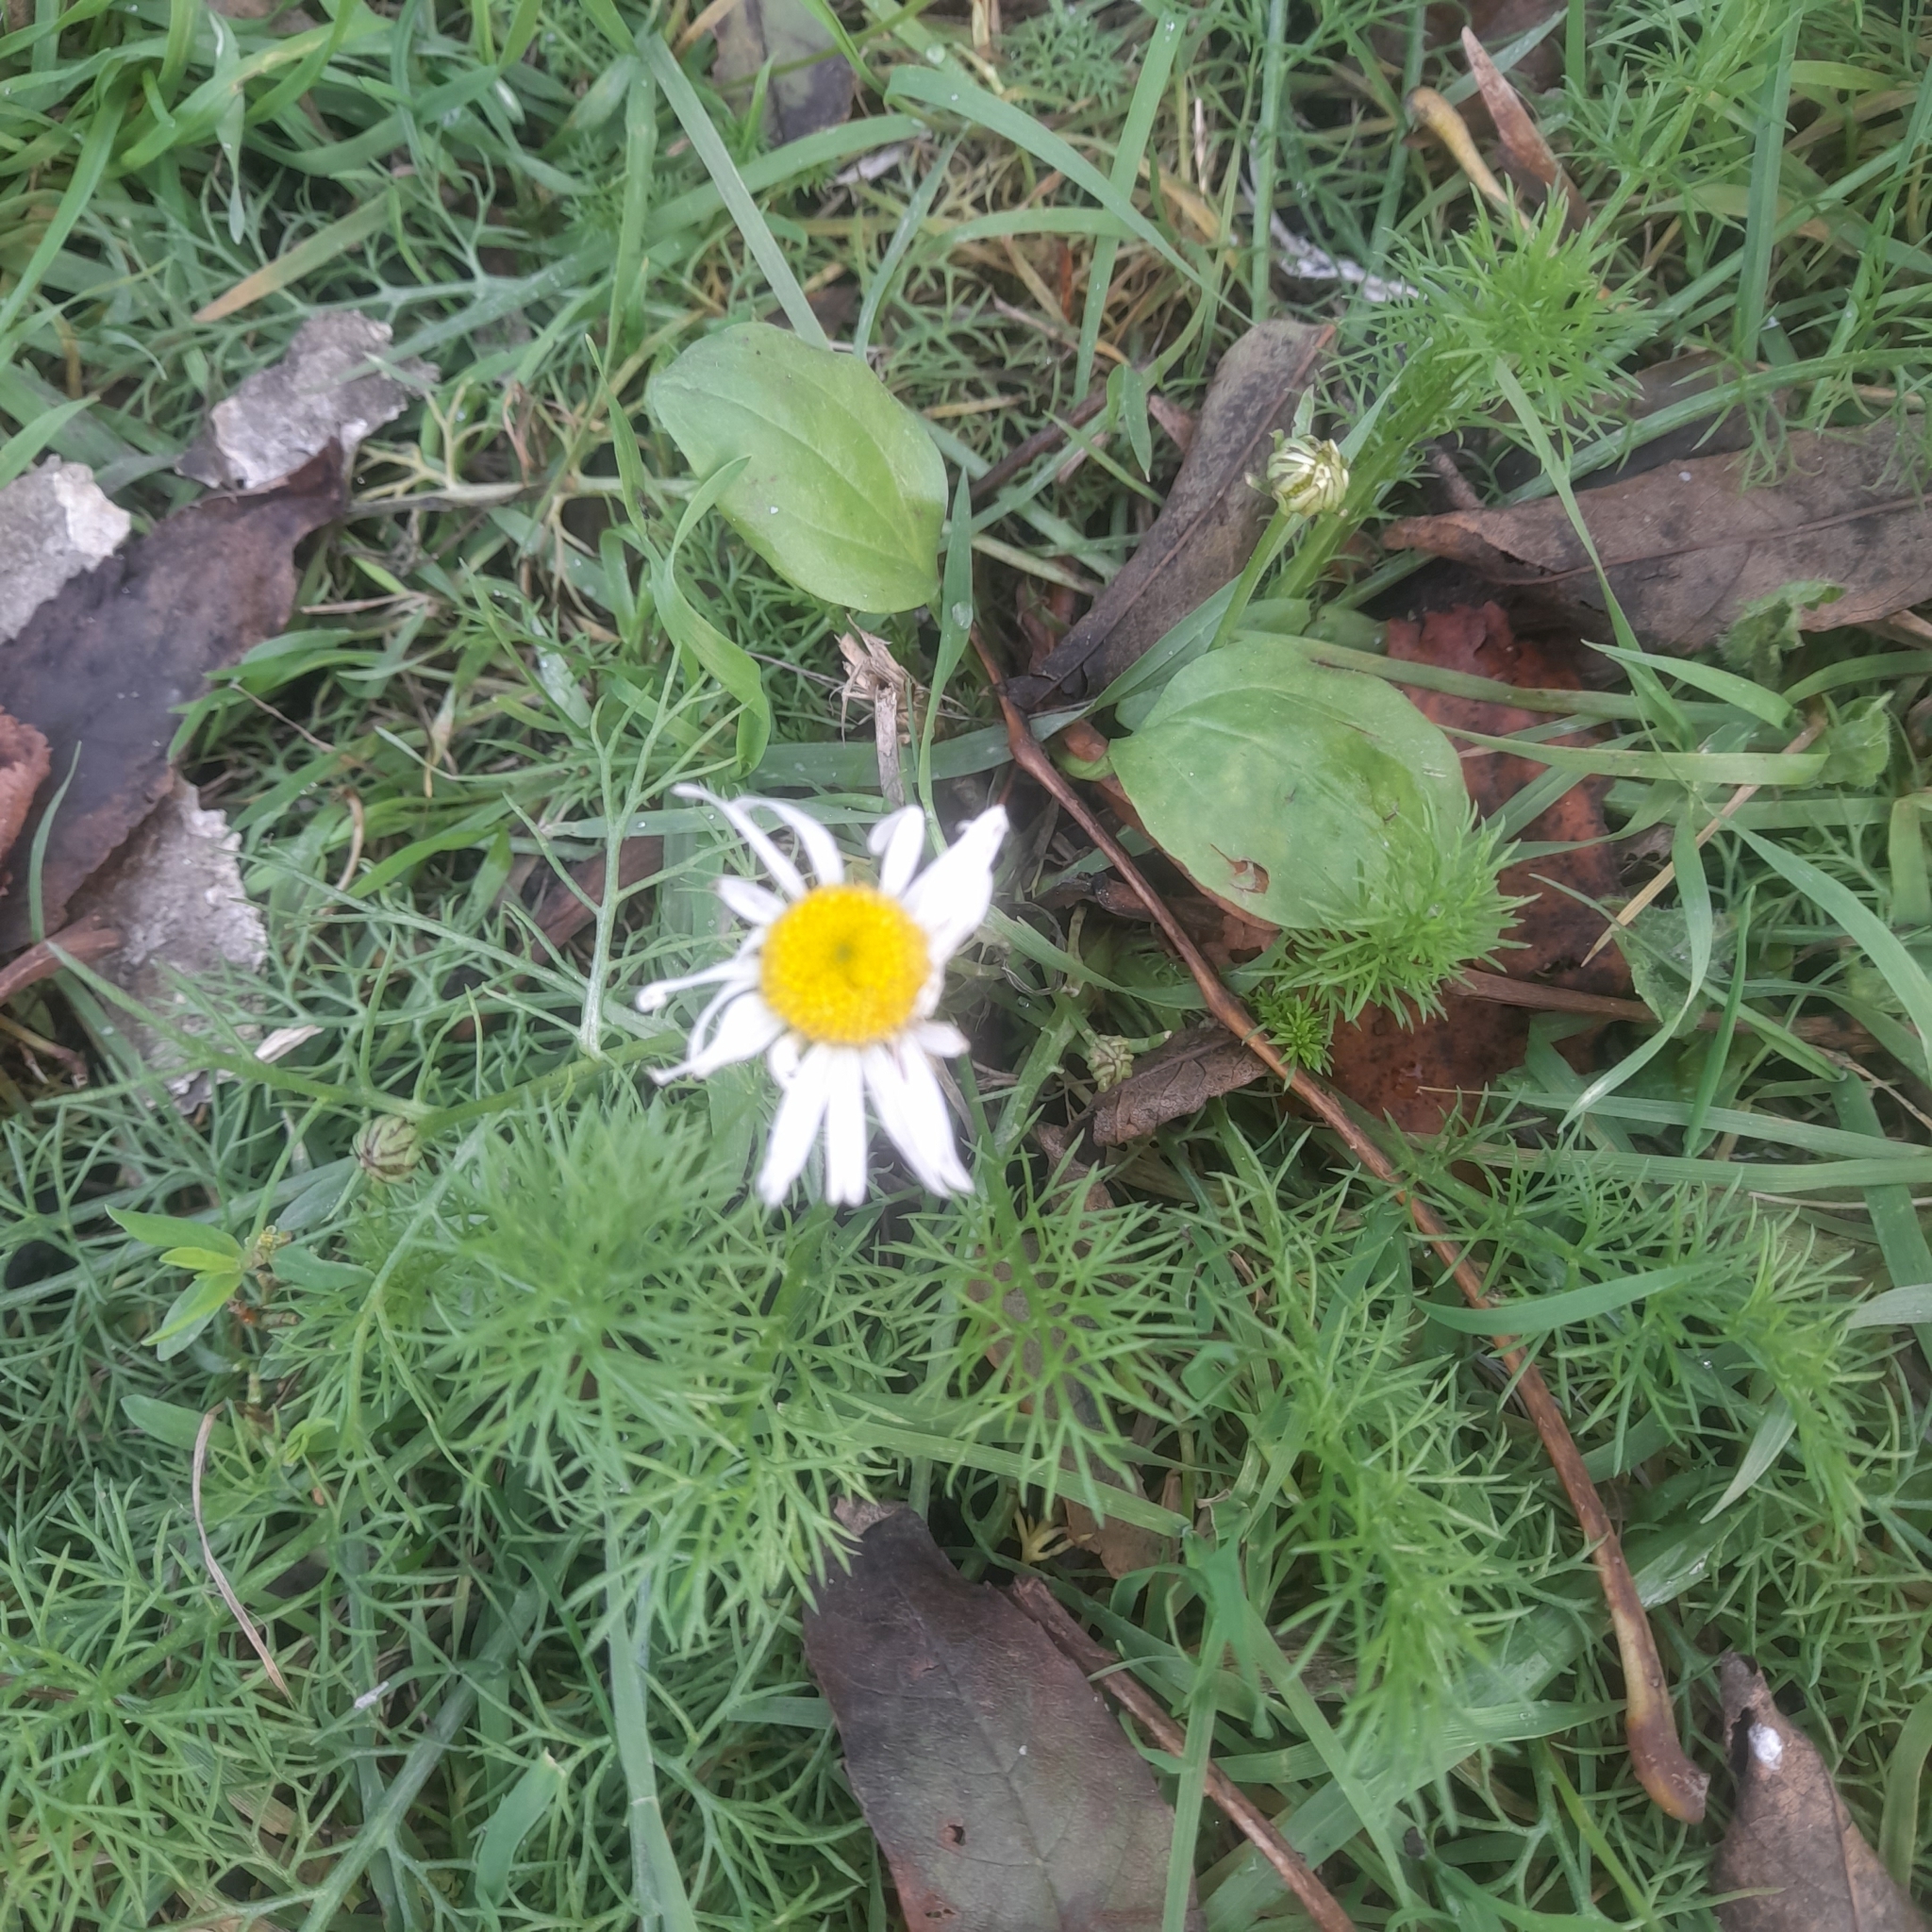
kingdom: Plantae
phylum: Tracheophyta
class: Magnoliopsida
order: Asterales
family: Asteraceae
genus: Tripleurospermum
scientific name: Tripleurospermum inodorum
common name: Scentless mayweed
